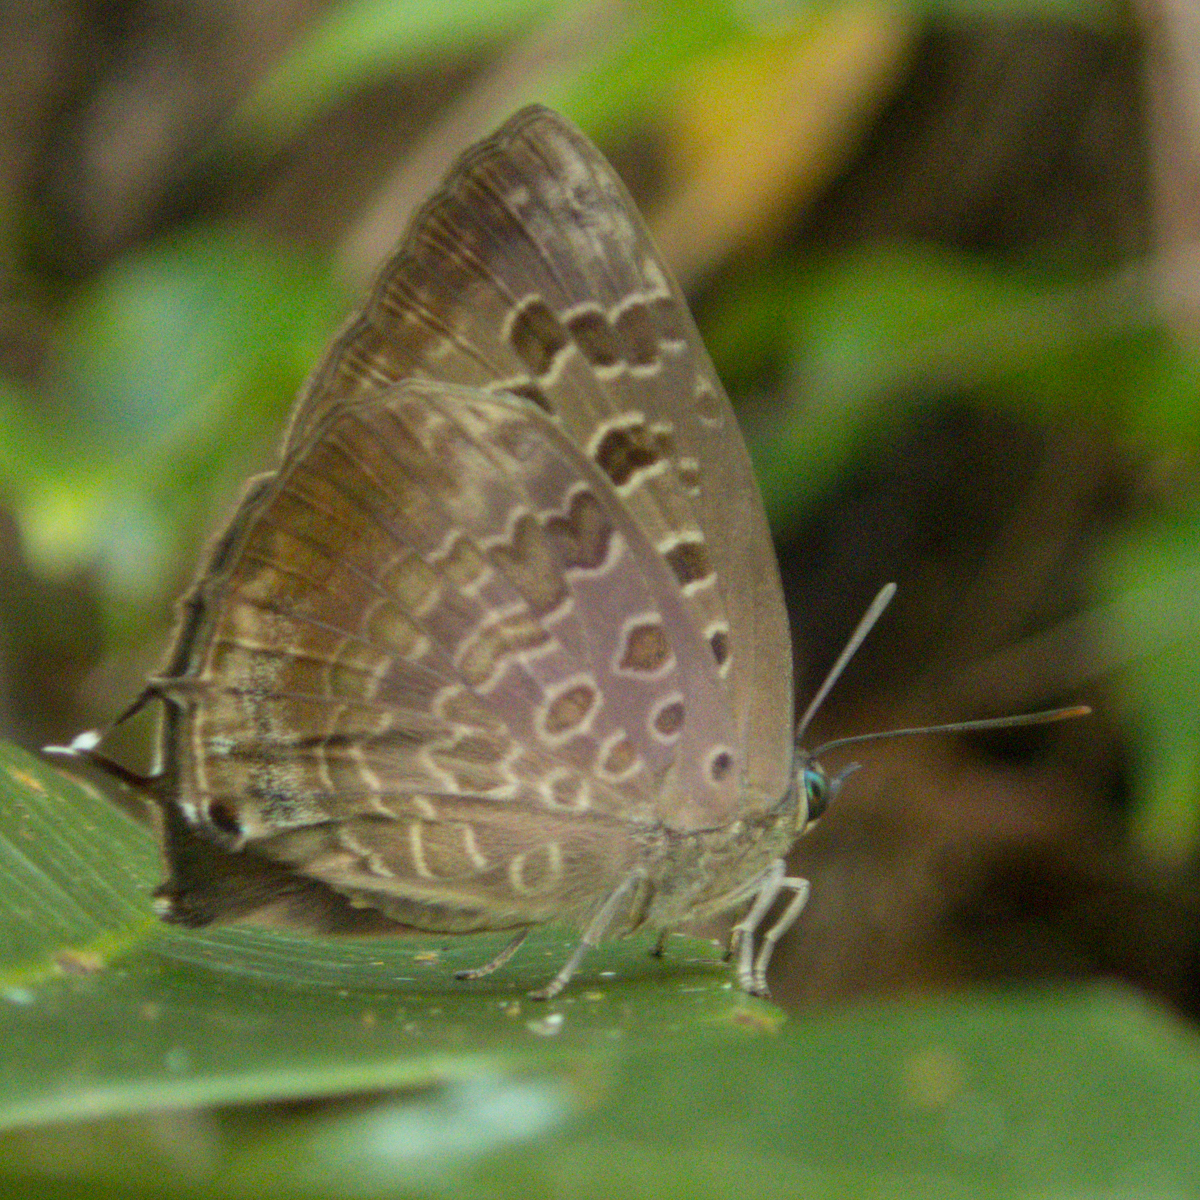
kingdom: Animalia
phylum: Arthropoda
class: Insecta
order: Lepidoptera
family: Lycaenidae
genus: Arhopala
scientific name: Arhopala bazalus
